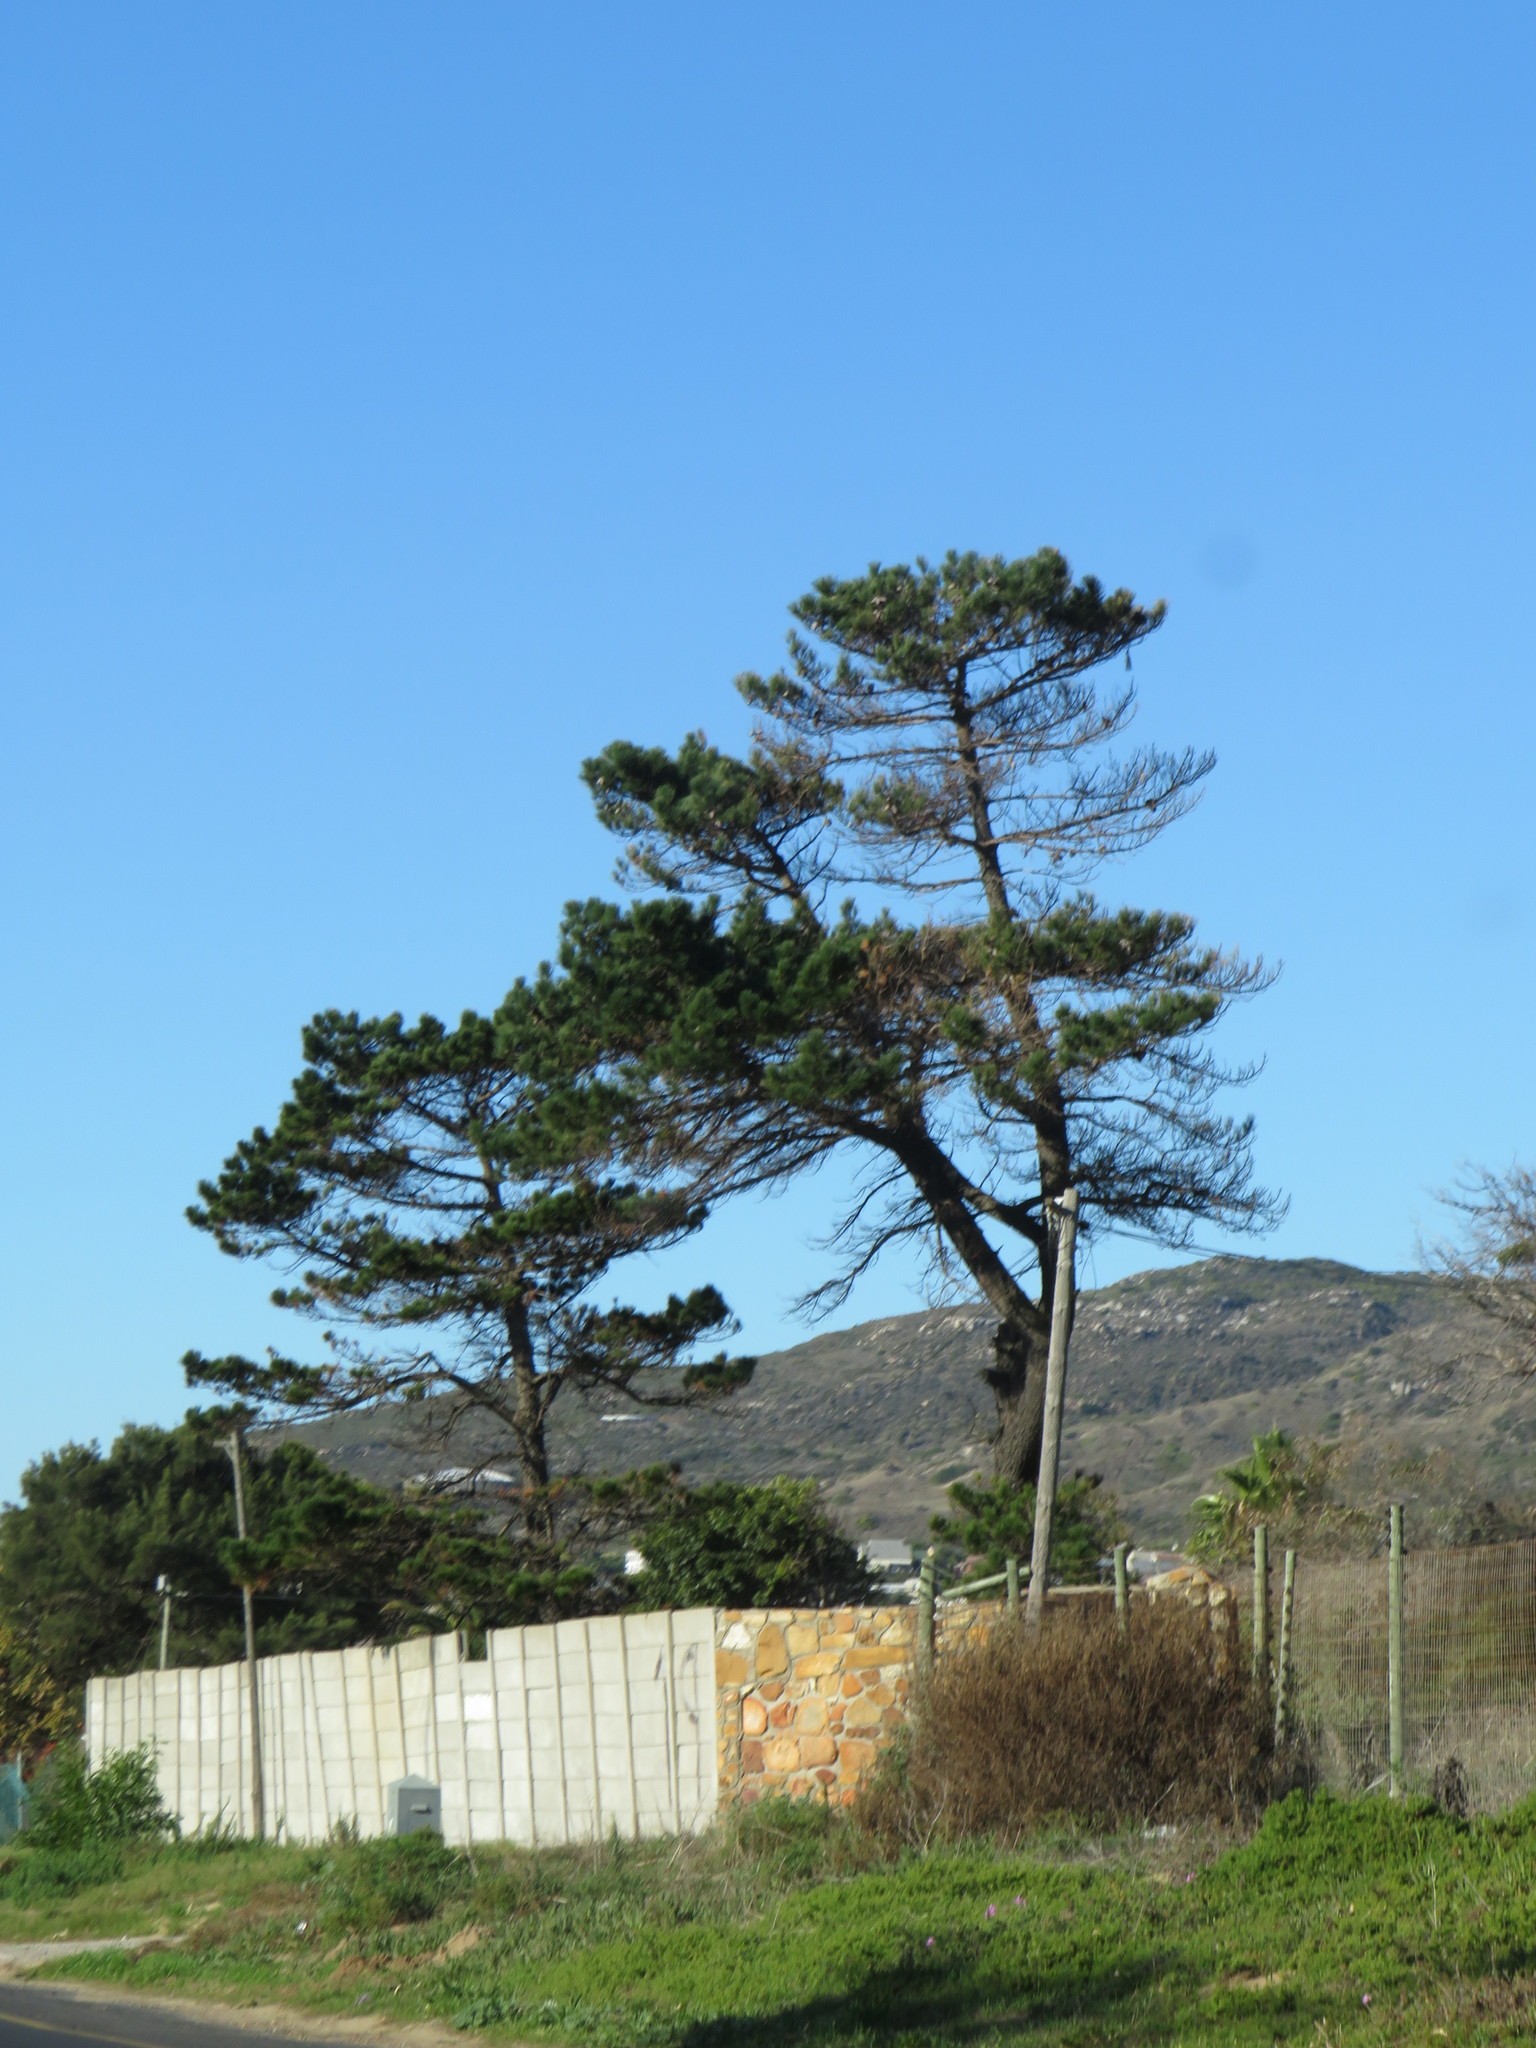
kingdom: Plantae
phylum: Tracheophyta
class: Pinopsida
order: Pinales
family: Pinaceae
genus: Pinus
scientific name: Pinus radiata
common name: Monterey pine
